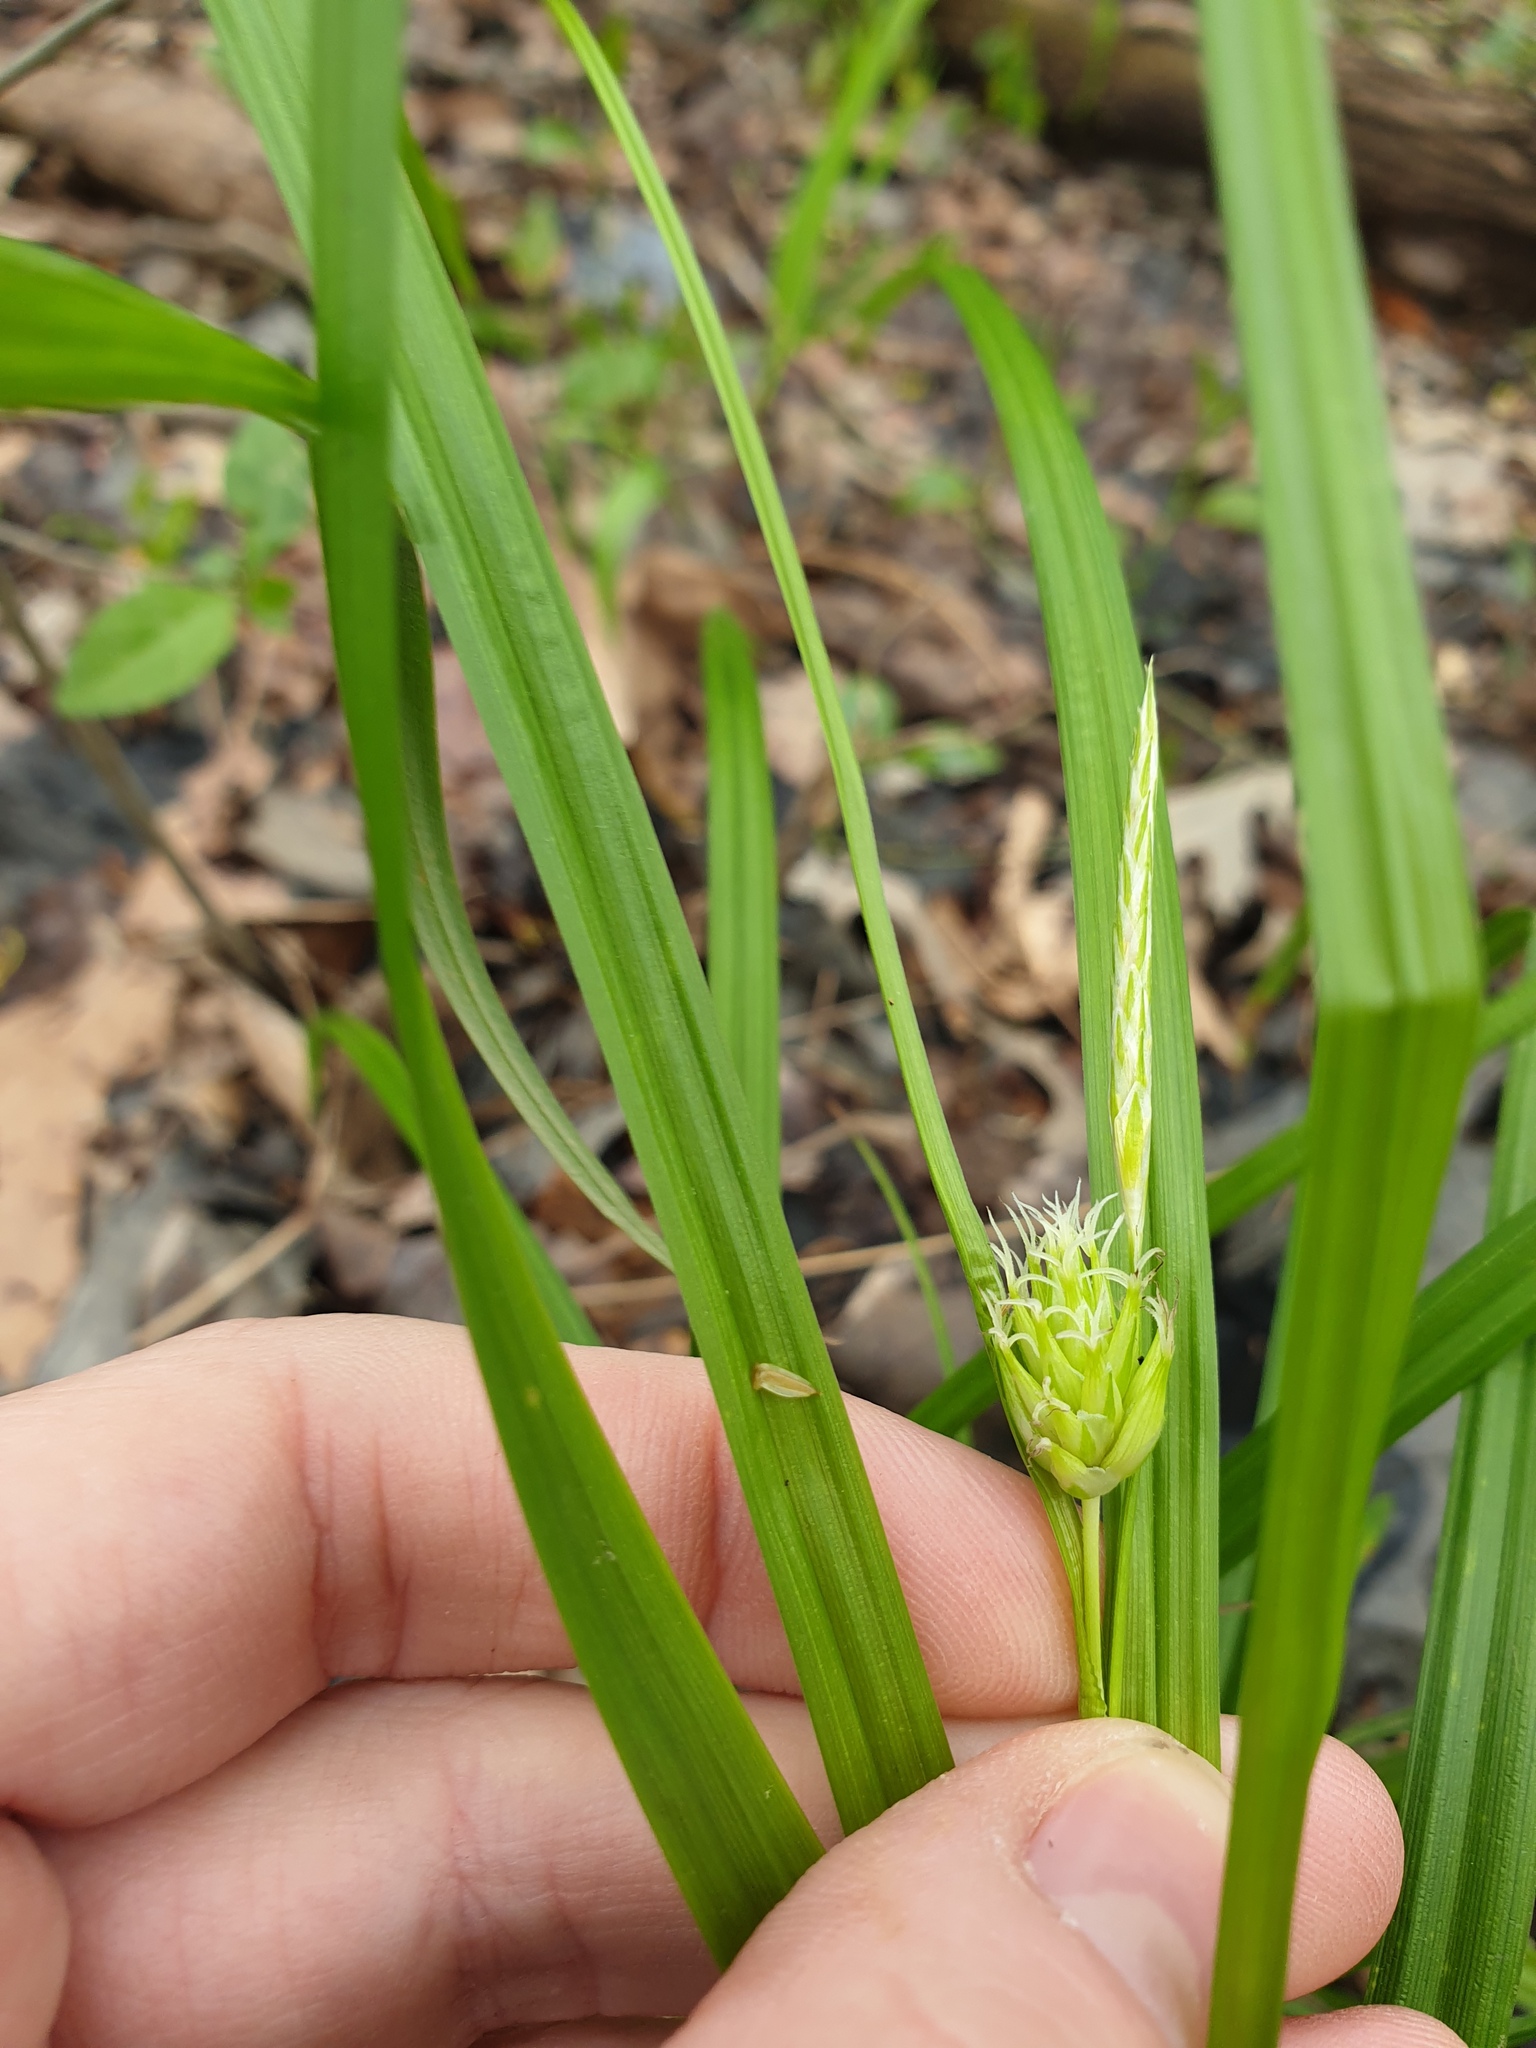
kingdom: Plantae
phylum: Tracheophyta
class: Liliopsida
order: Poales
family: Cyperaceae
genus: Carex
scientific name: Carex grayi
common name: Asa gray's sedge
